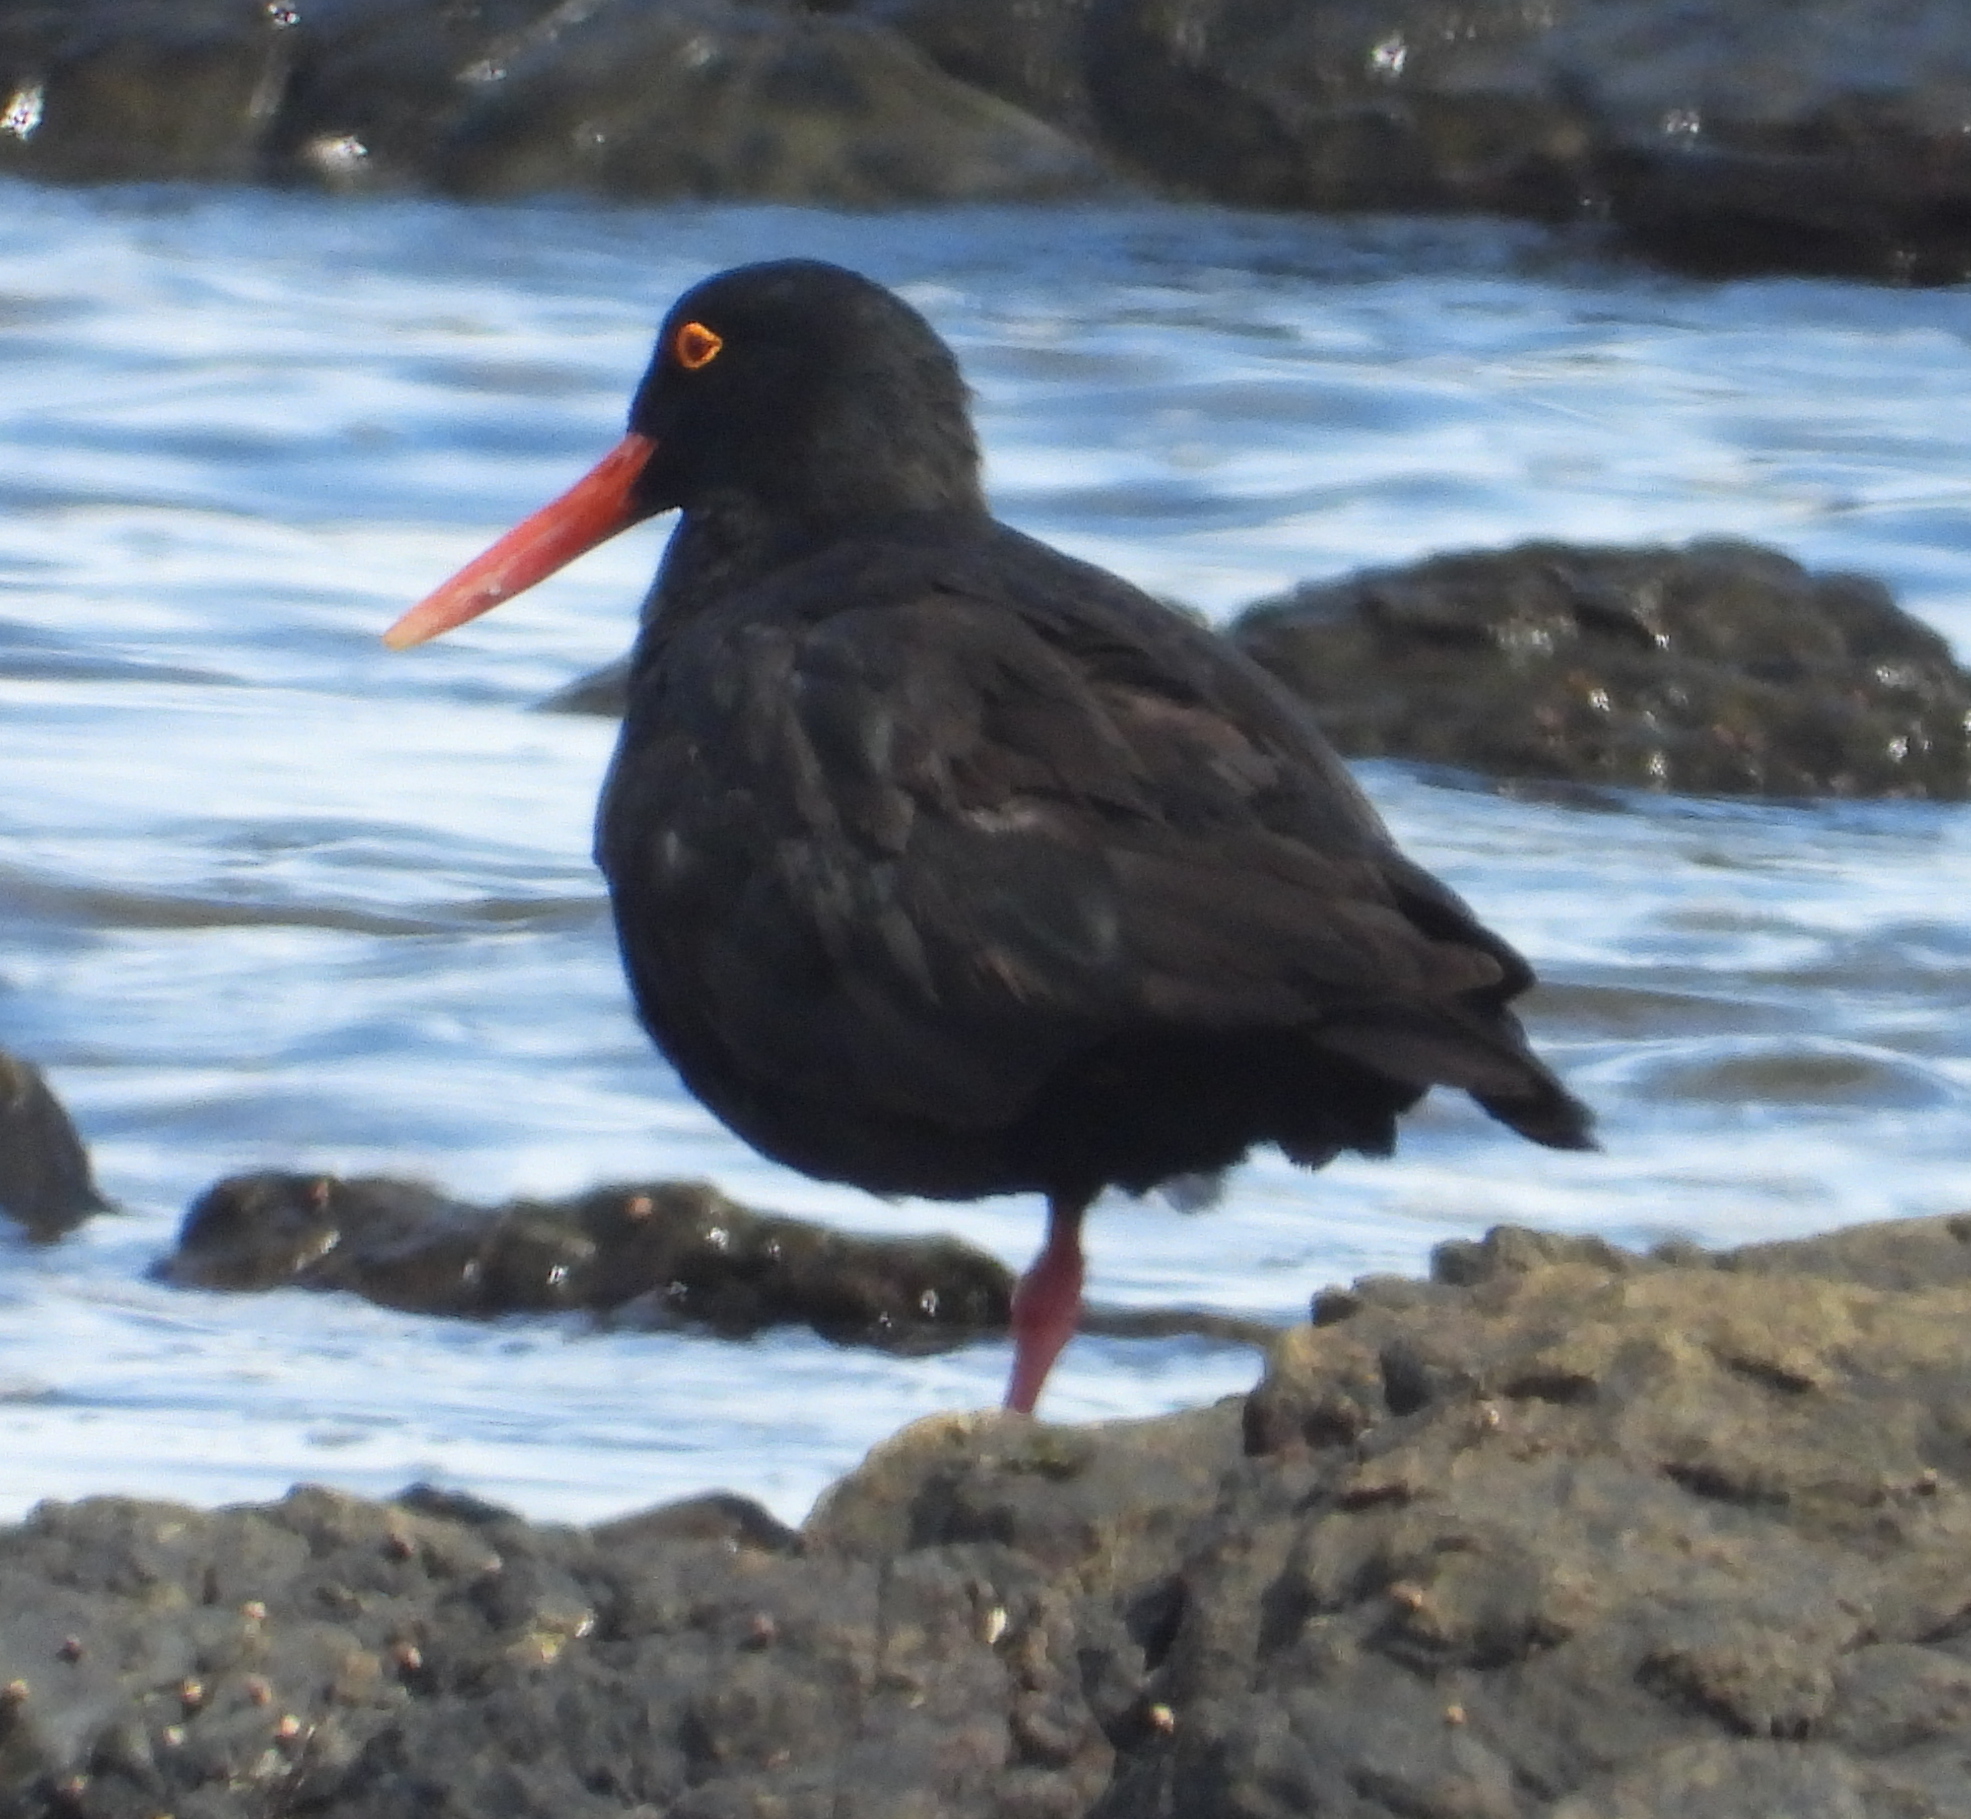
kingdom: Animalia
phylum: Chordata
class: Aves
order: Charadriiformes
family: Haematopodidae
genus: Haematopus
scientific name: Haematopus moquini
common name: African oystercatcher
